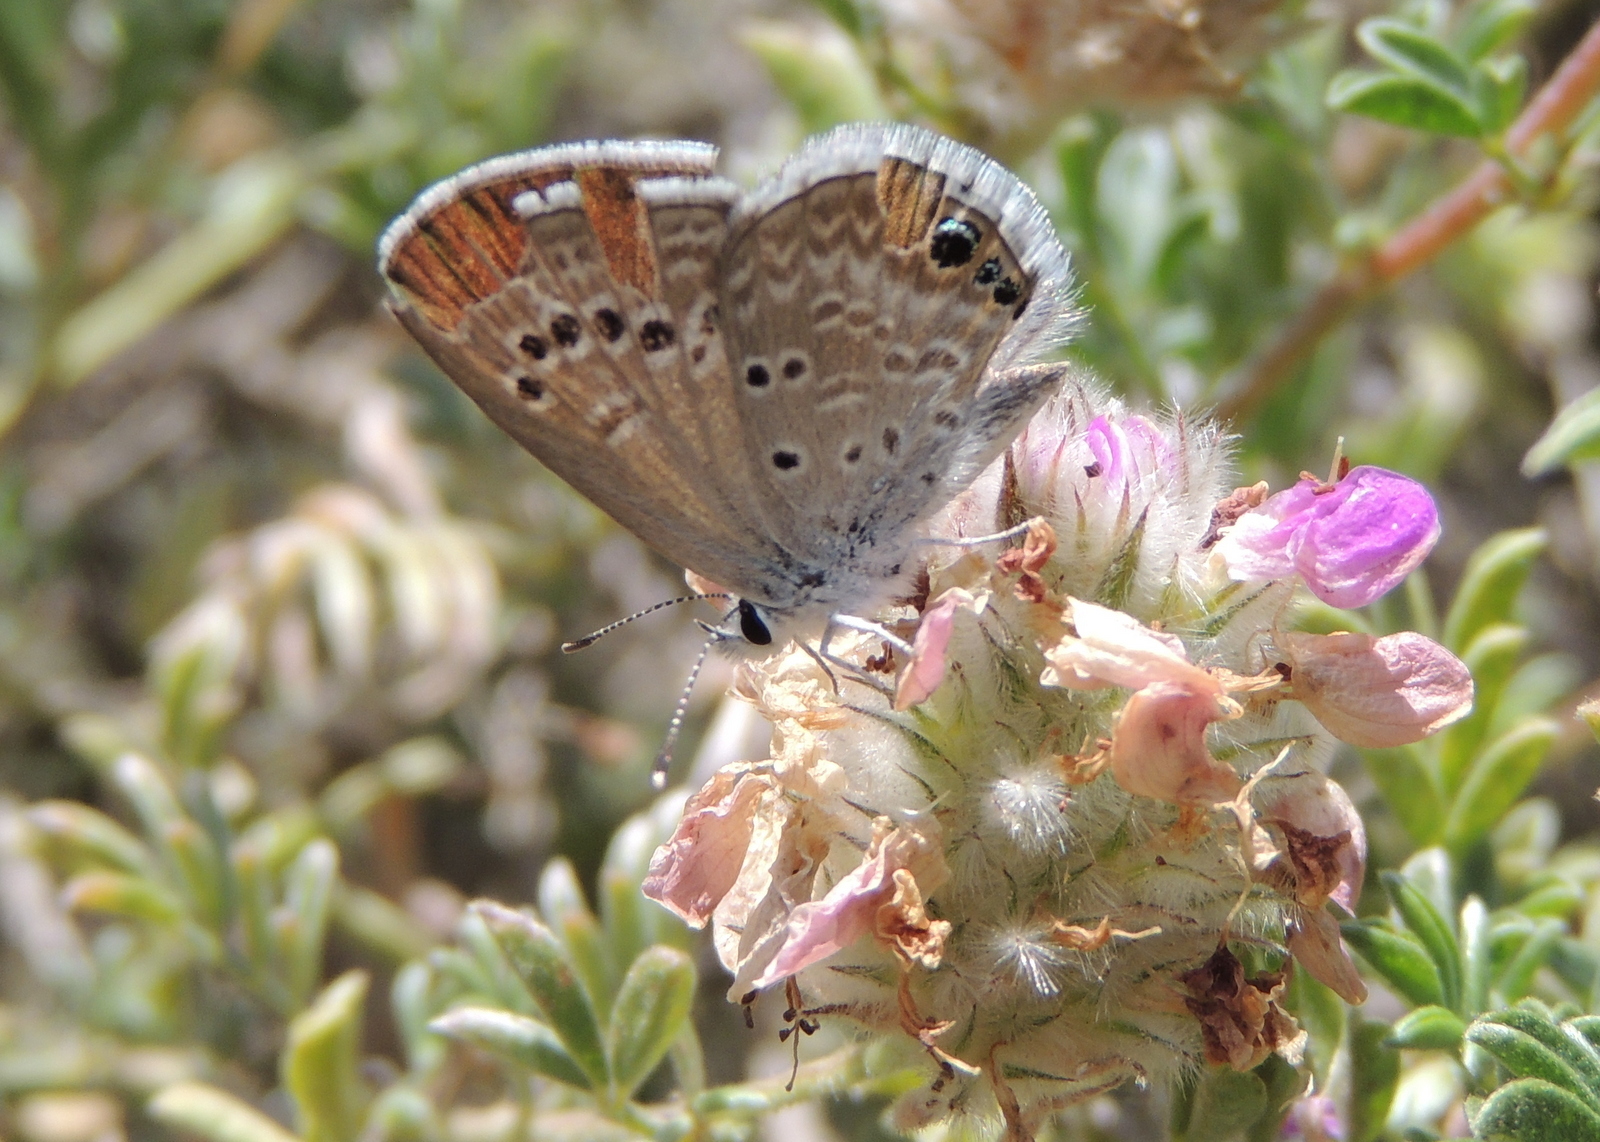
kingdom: Animalia
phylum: Arthropoda
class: Insecta
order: Lepidoptera
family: Lycaenidae
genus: Echinargus
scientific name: Echinargus isola
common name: Reakirt's blue
